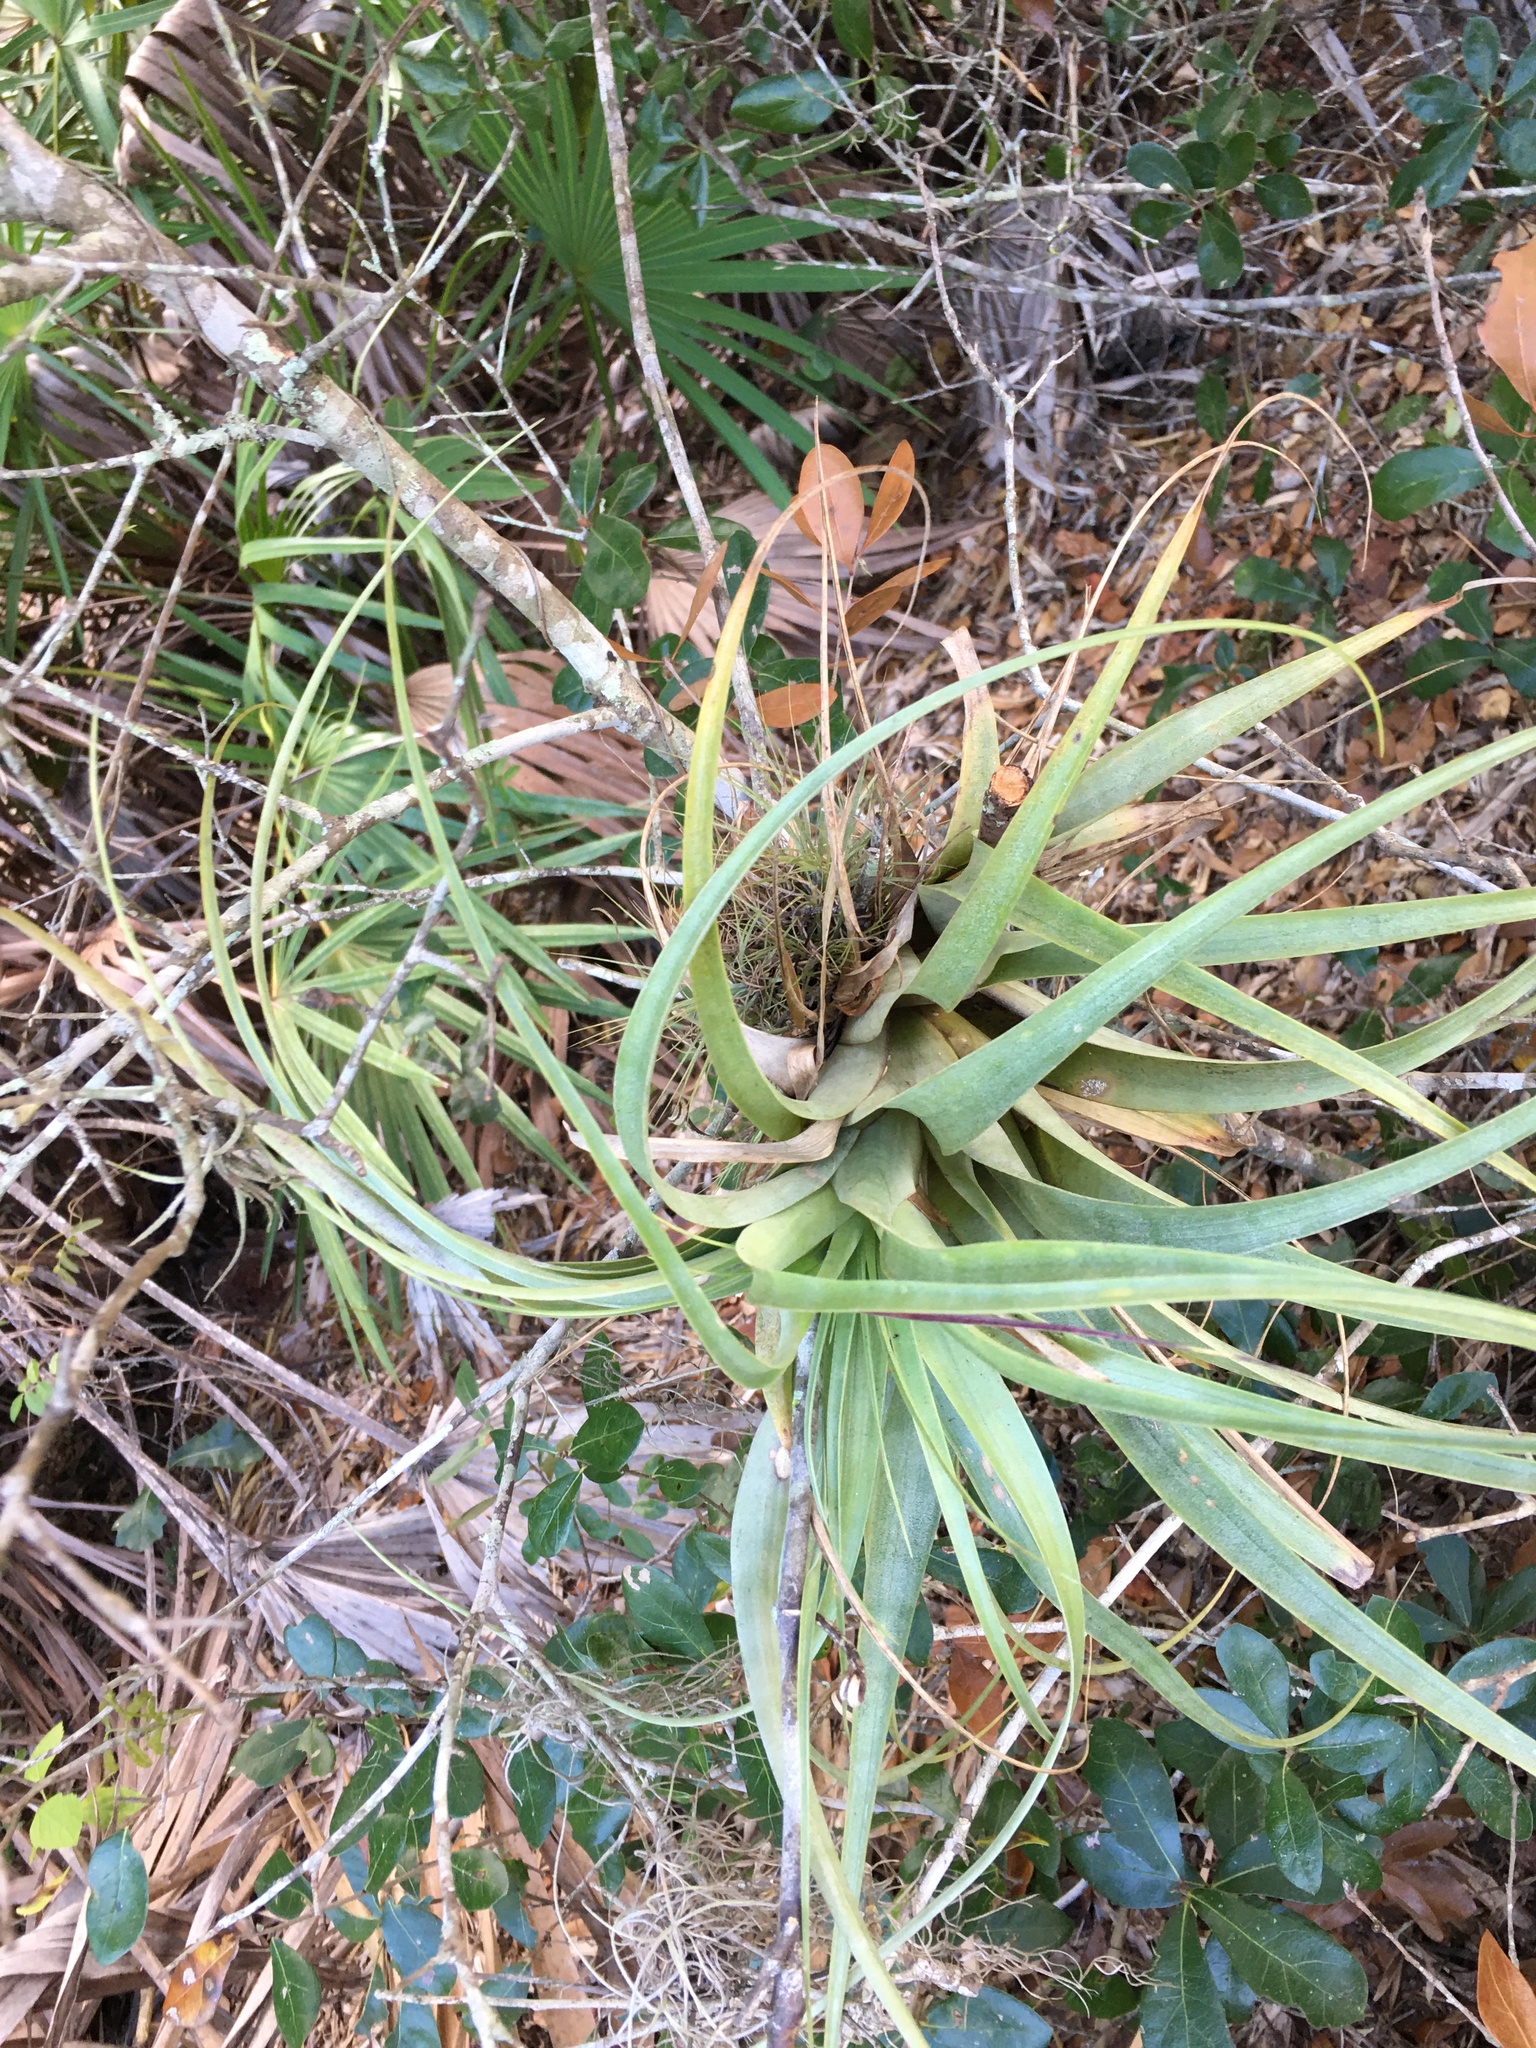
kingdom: Plantae
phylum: Tracheophyta
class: Liliopsida
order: Poales
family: Bromeliaceae
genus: Tillandsia
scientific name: Tillandsia utriculata
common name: Wild pine
